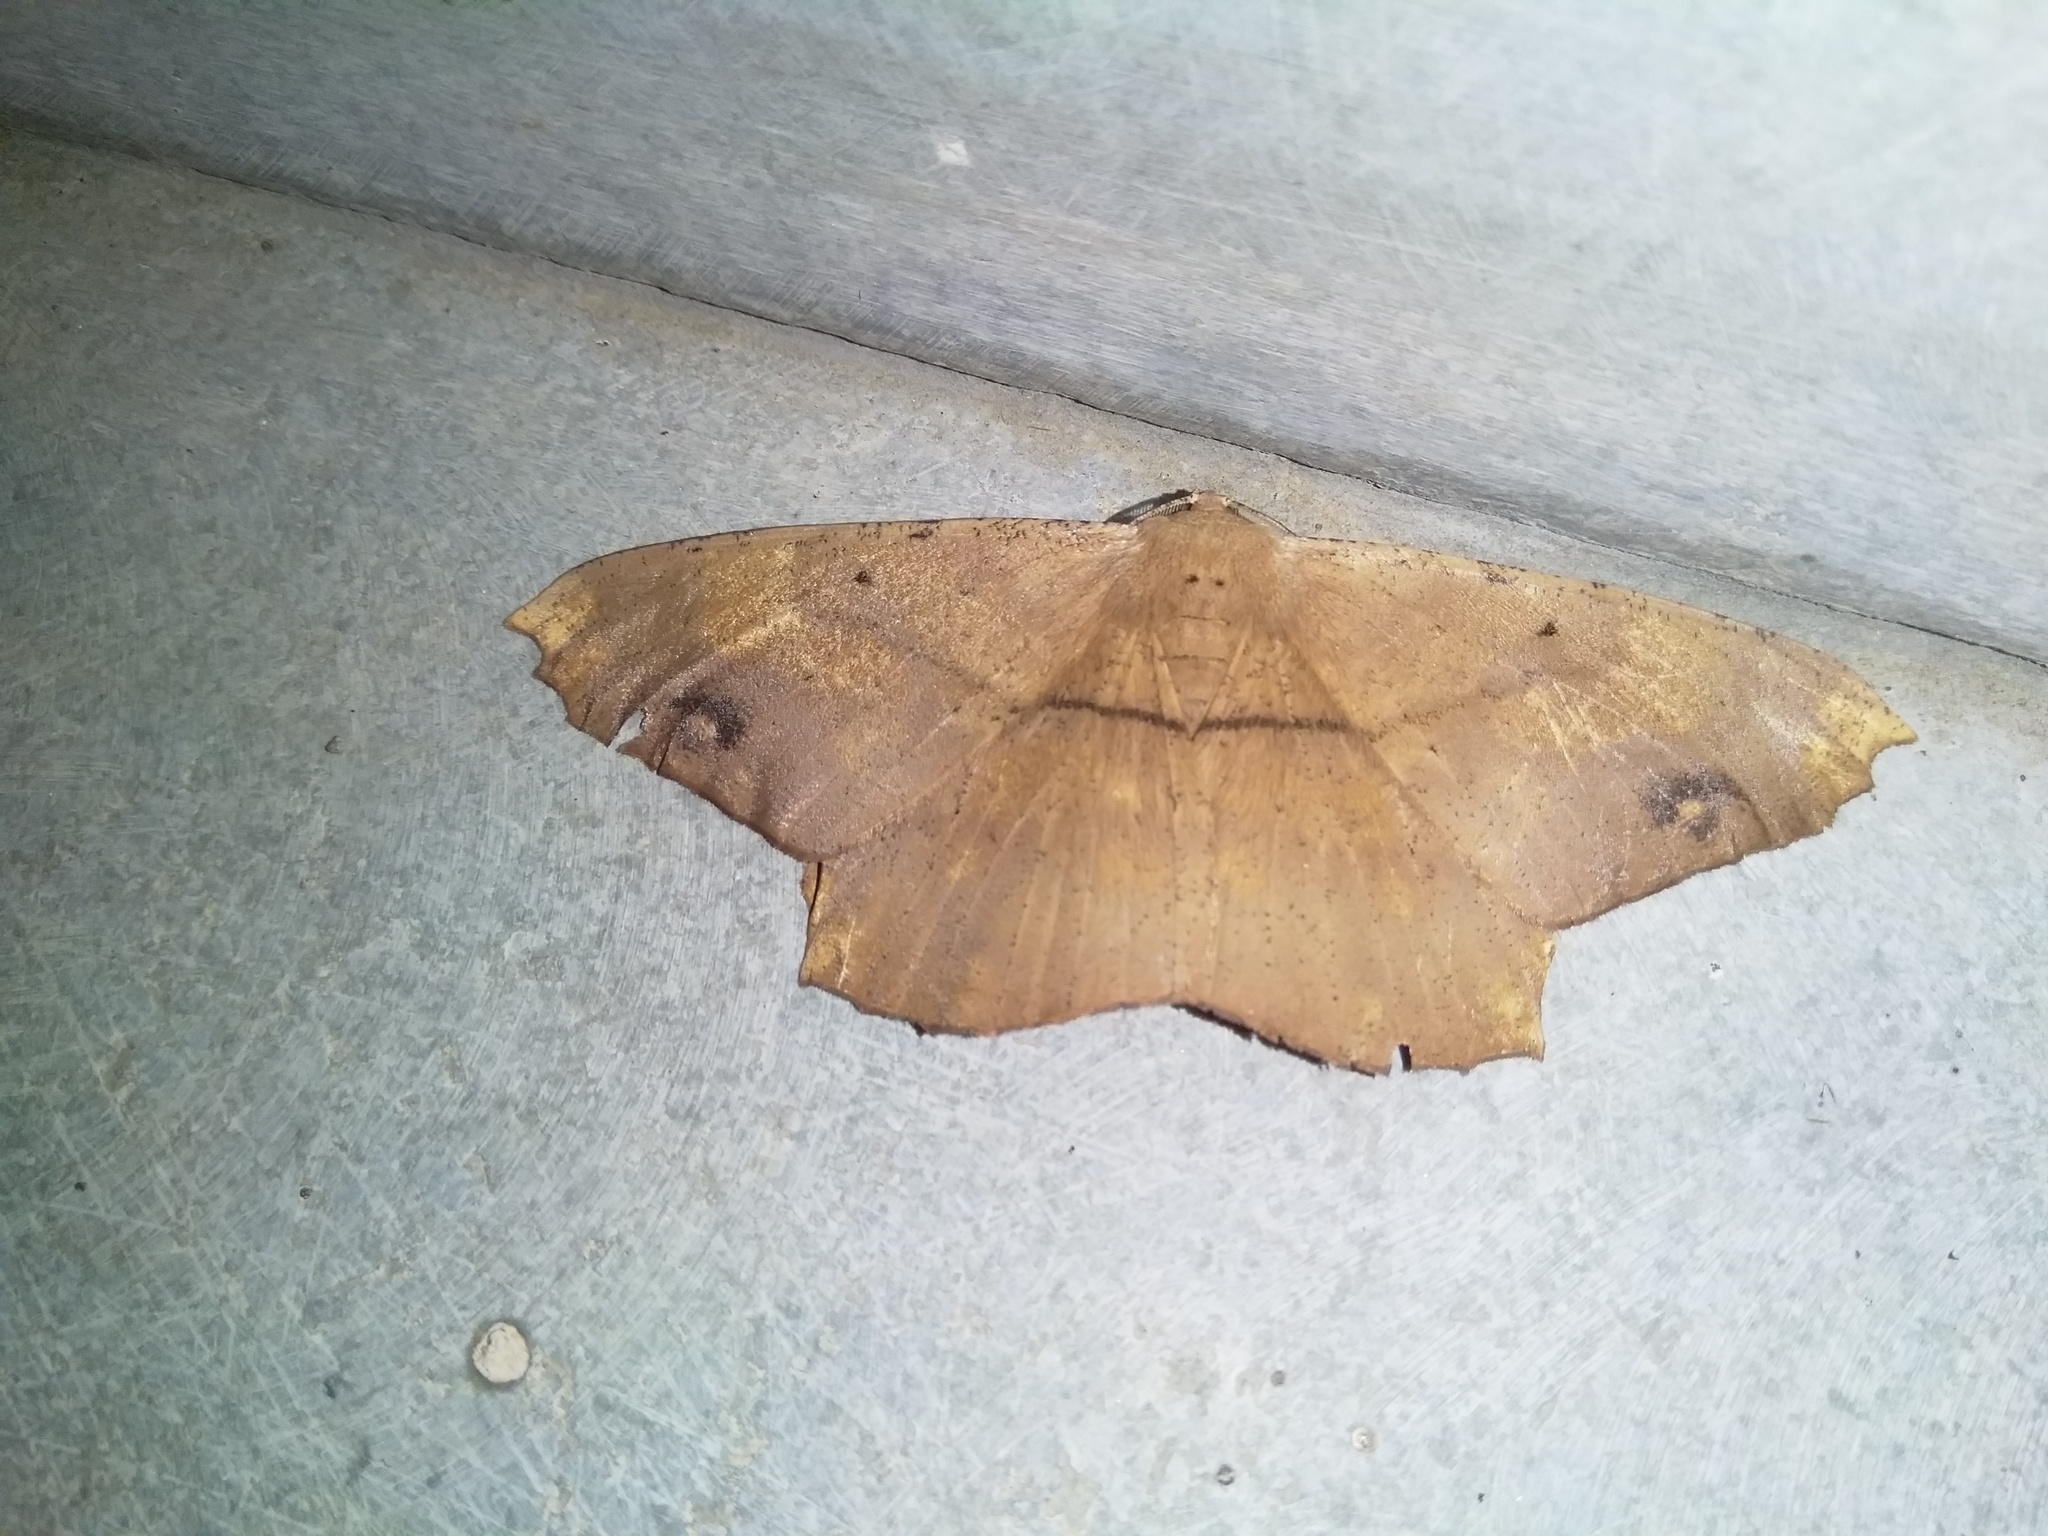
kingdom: Animalia
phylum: Arthropoda
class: Insecta
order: Lepidoptera
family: Geometridae
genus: Chorodna
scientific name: Chorodna testaceata
